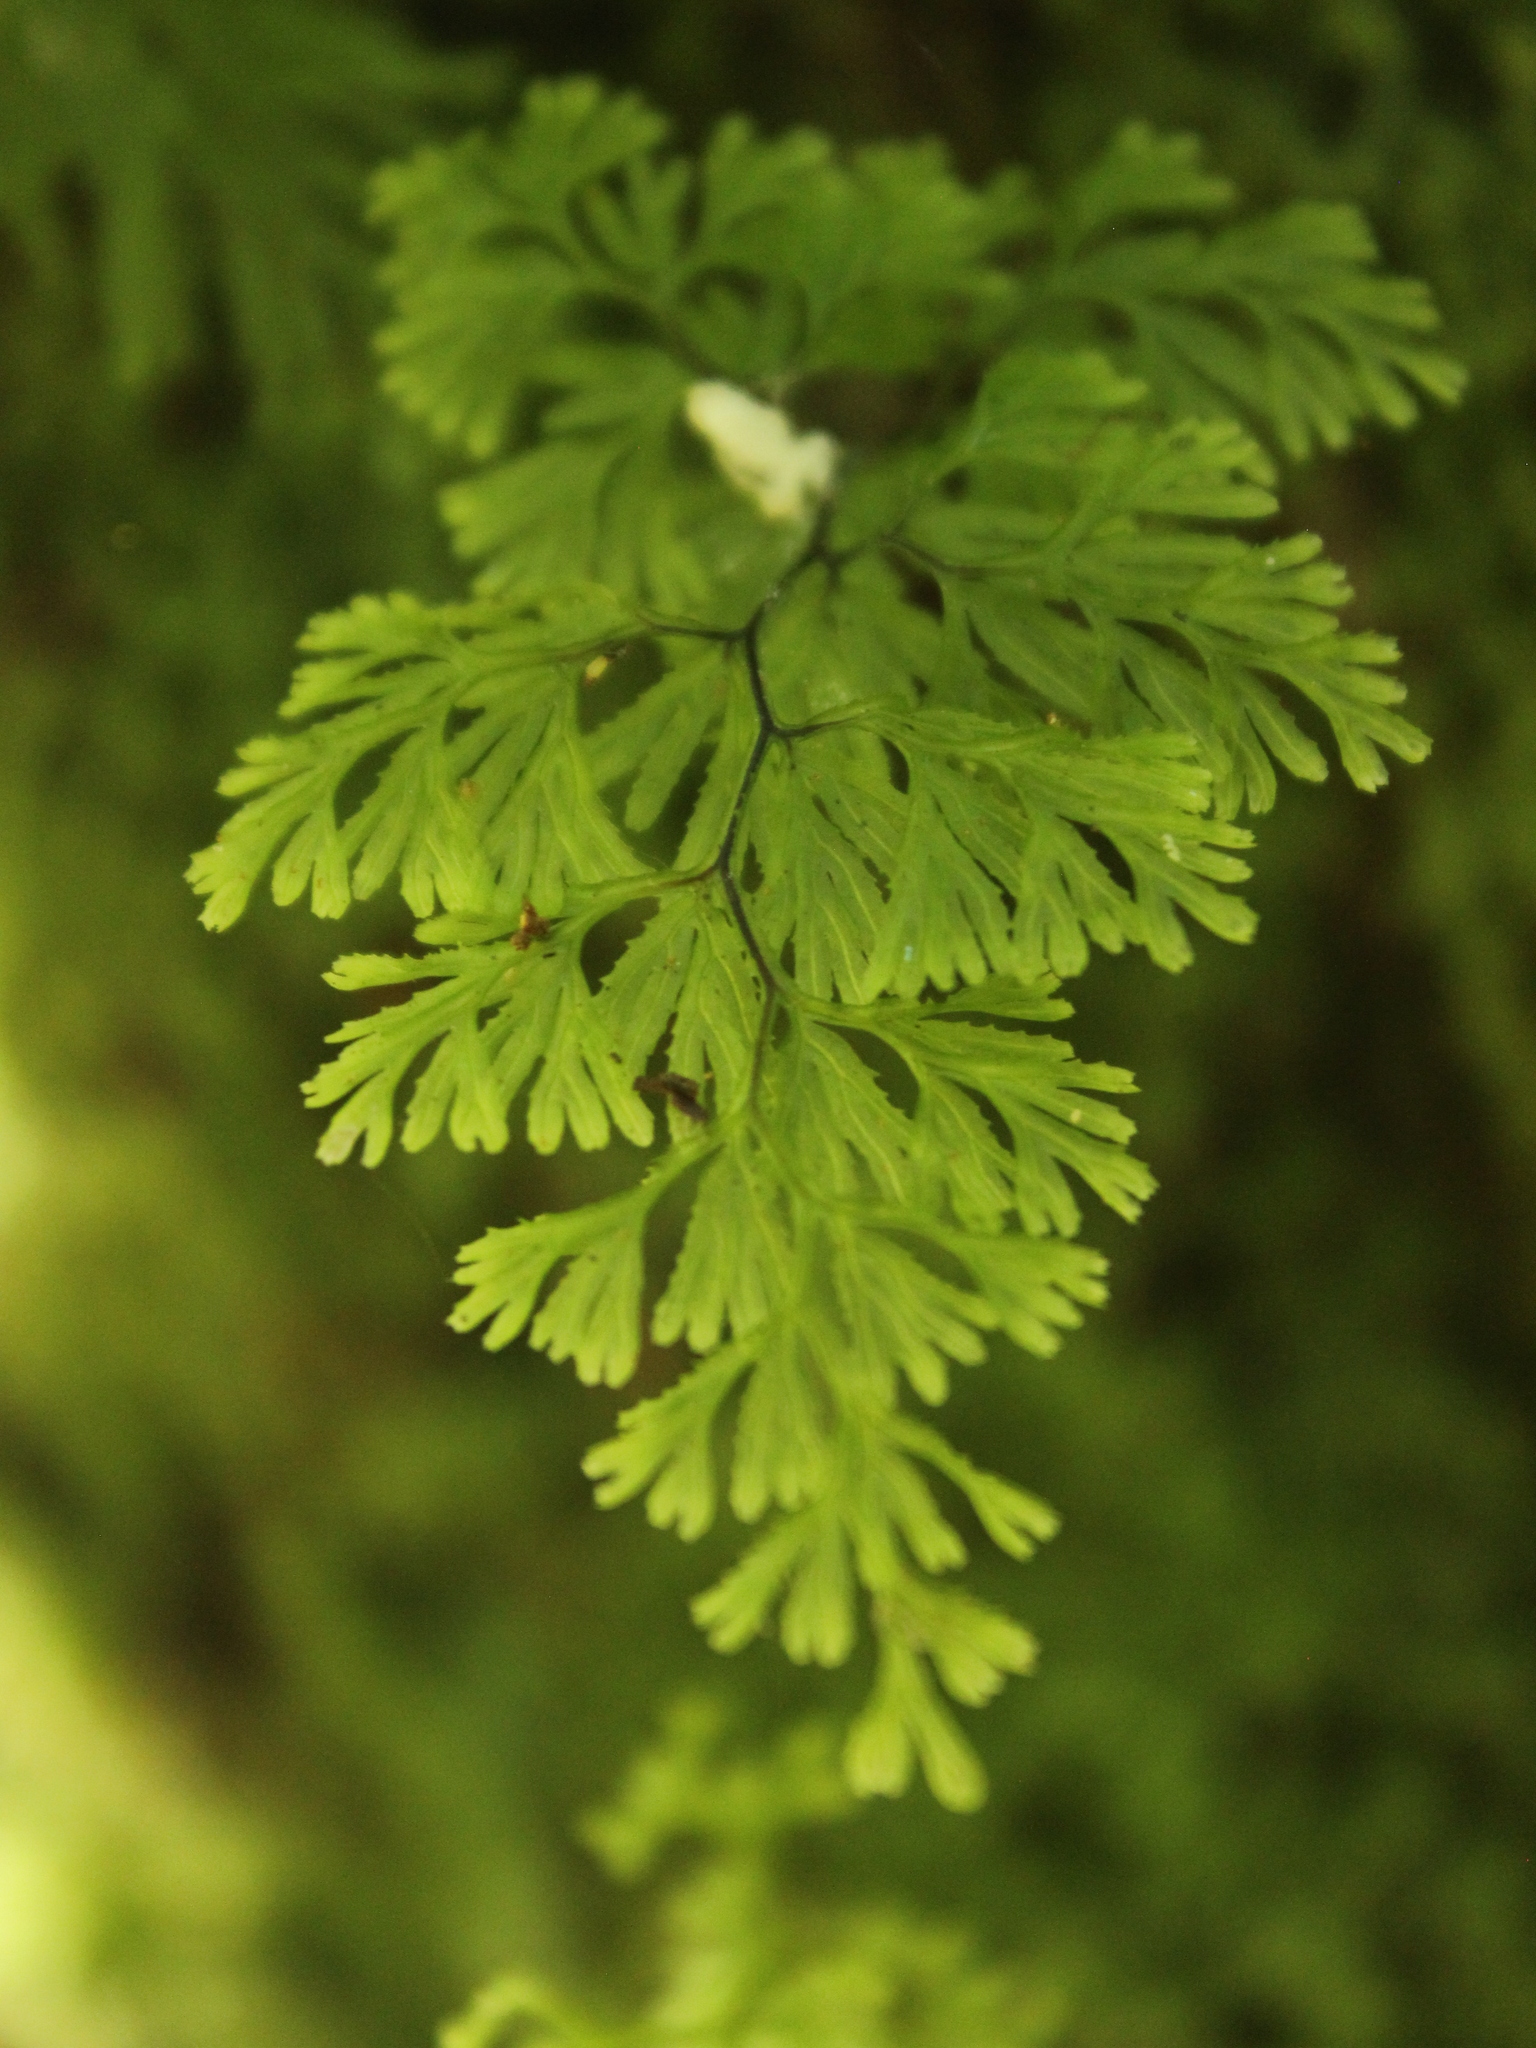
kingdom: Plantae
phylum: Tracheophyta
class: Polypodiopsida
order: Hymenophyllales
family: Hymenophyllaceae
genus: Hymenophyllum
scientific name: Hymenophyllum multifidum
